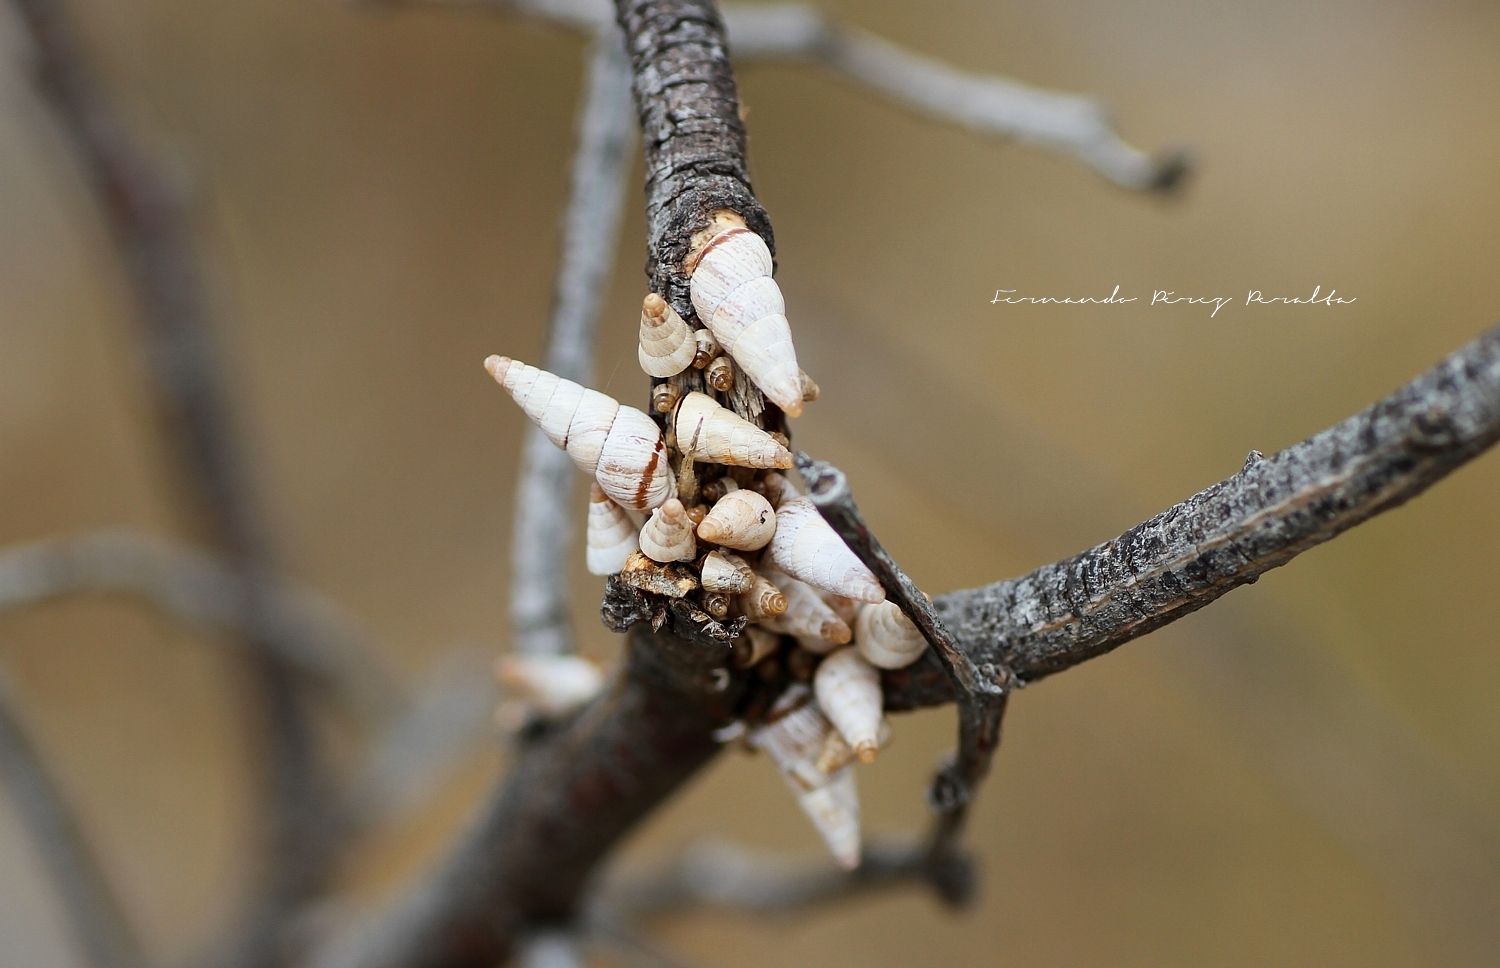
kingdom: Animalia
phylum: Mollusca
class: Gastropoda
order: Stylommatophora
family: Geomitridae
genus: Cochlicella
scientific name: Cochlicella acuta
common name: Pointed snail
